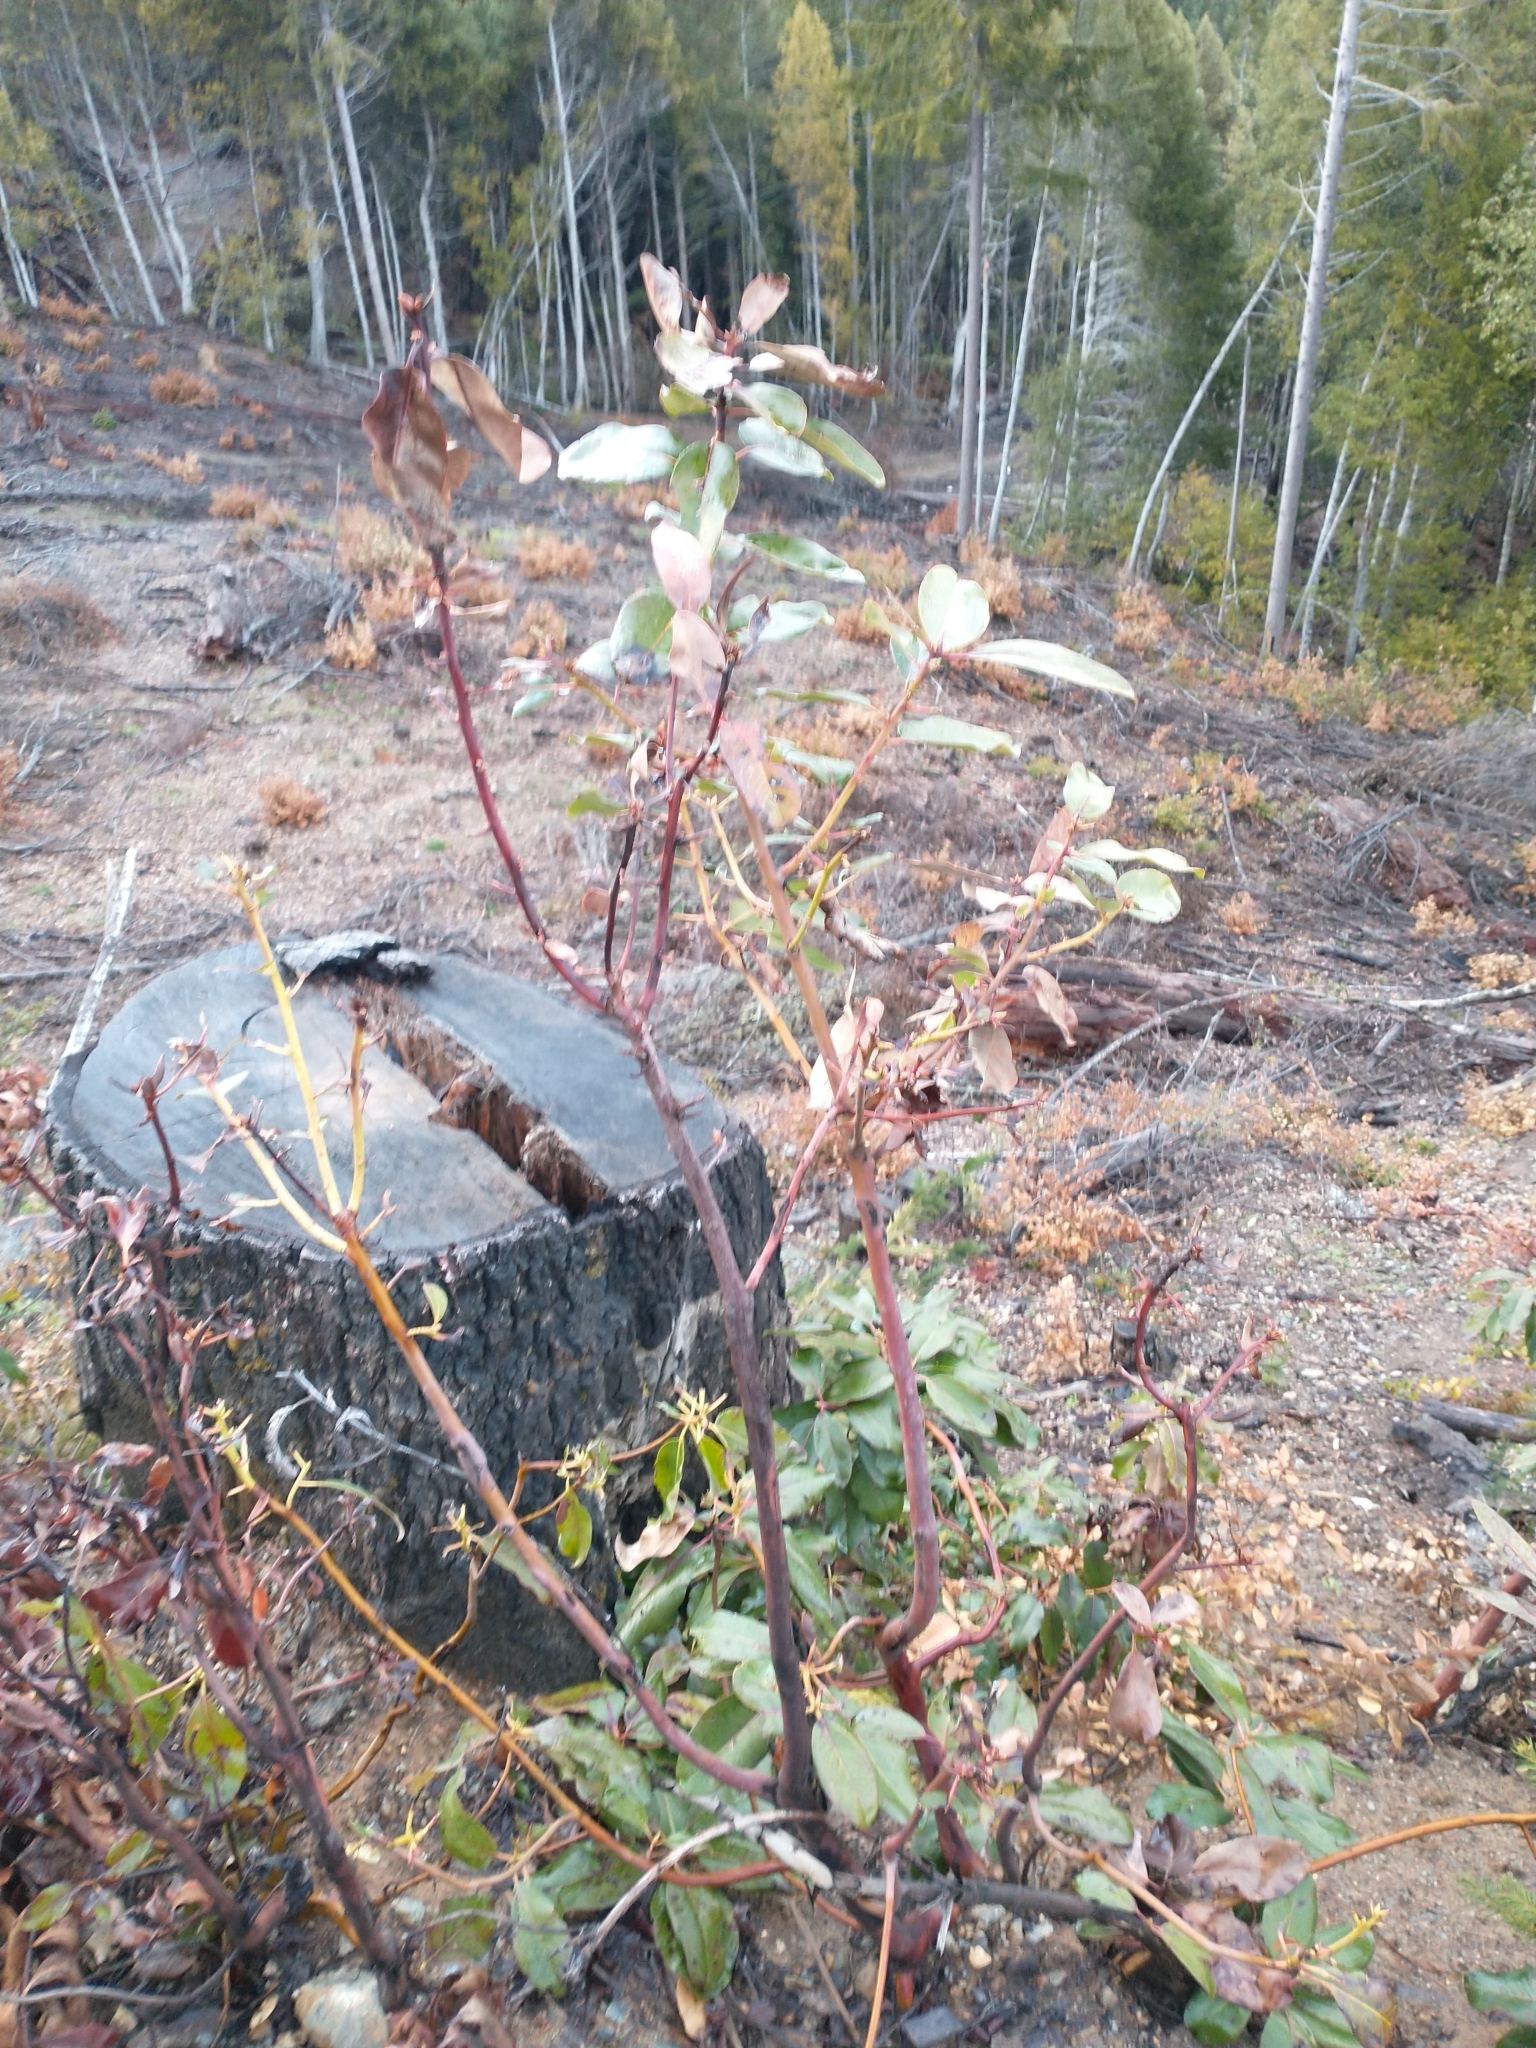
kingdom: Plantae
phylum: Tracheophyta
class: Magnoliopsida
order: Ericales
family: Ericaceae
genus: Arbutus
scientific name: Arbutus menziesii
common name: Pacific madrone
